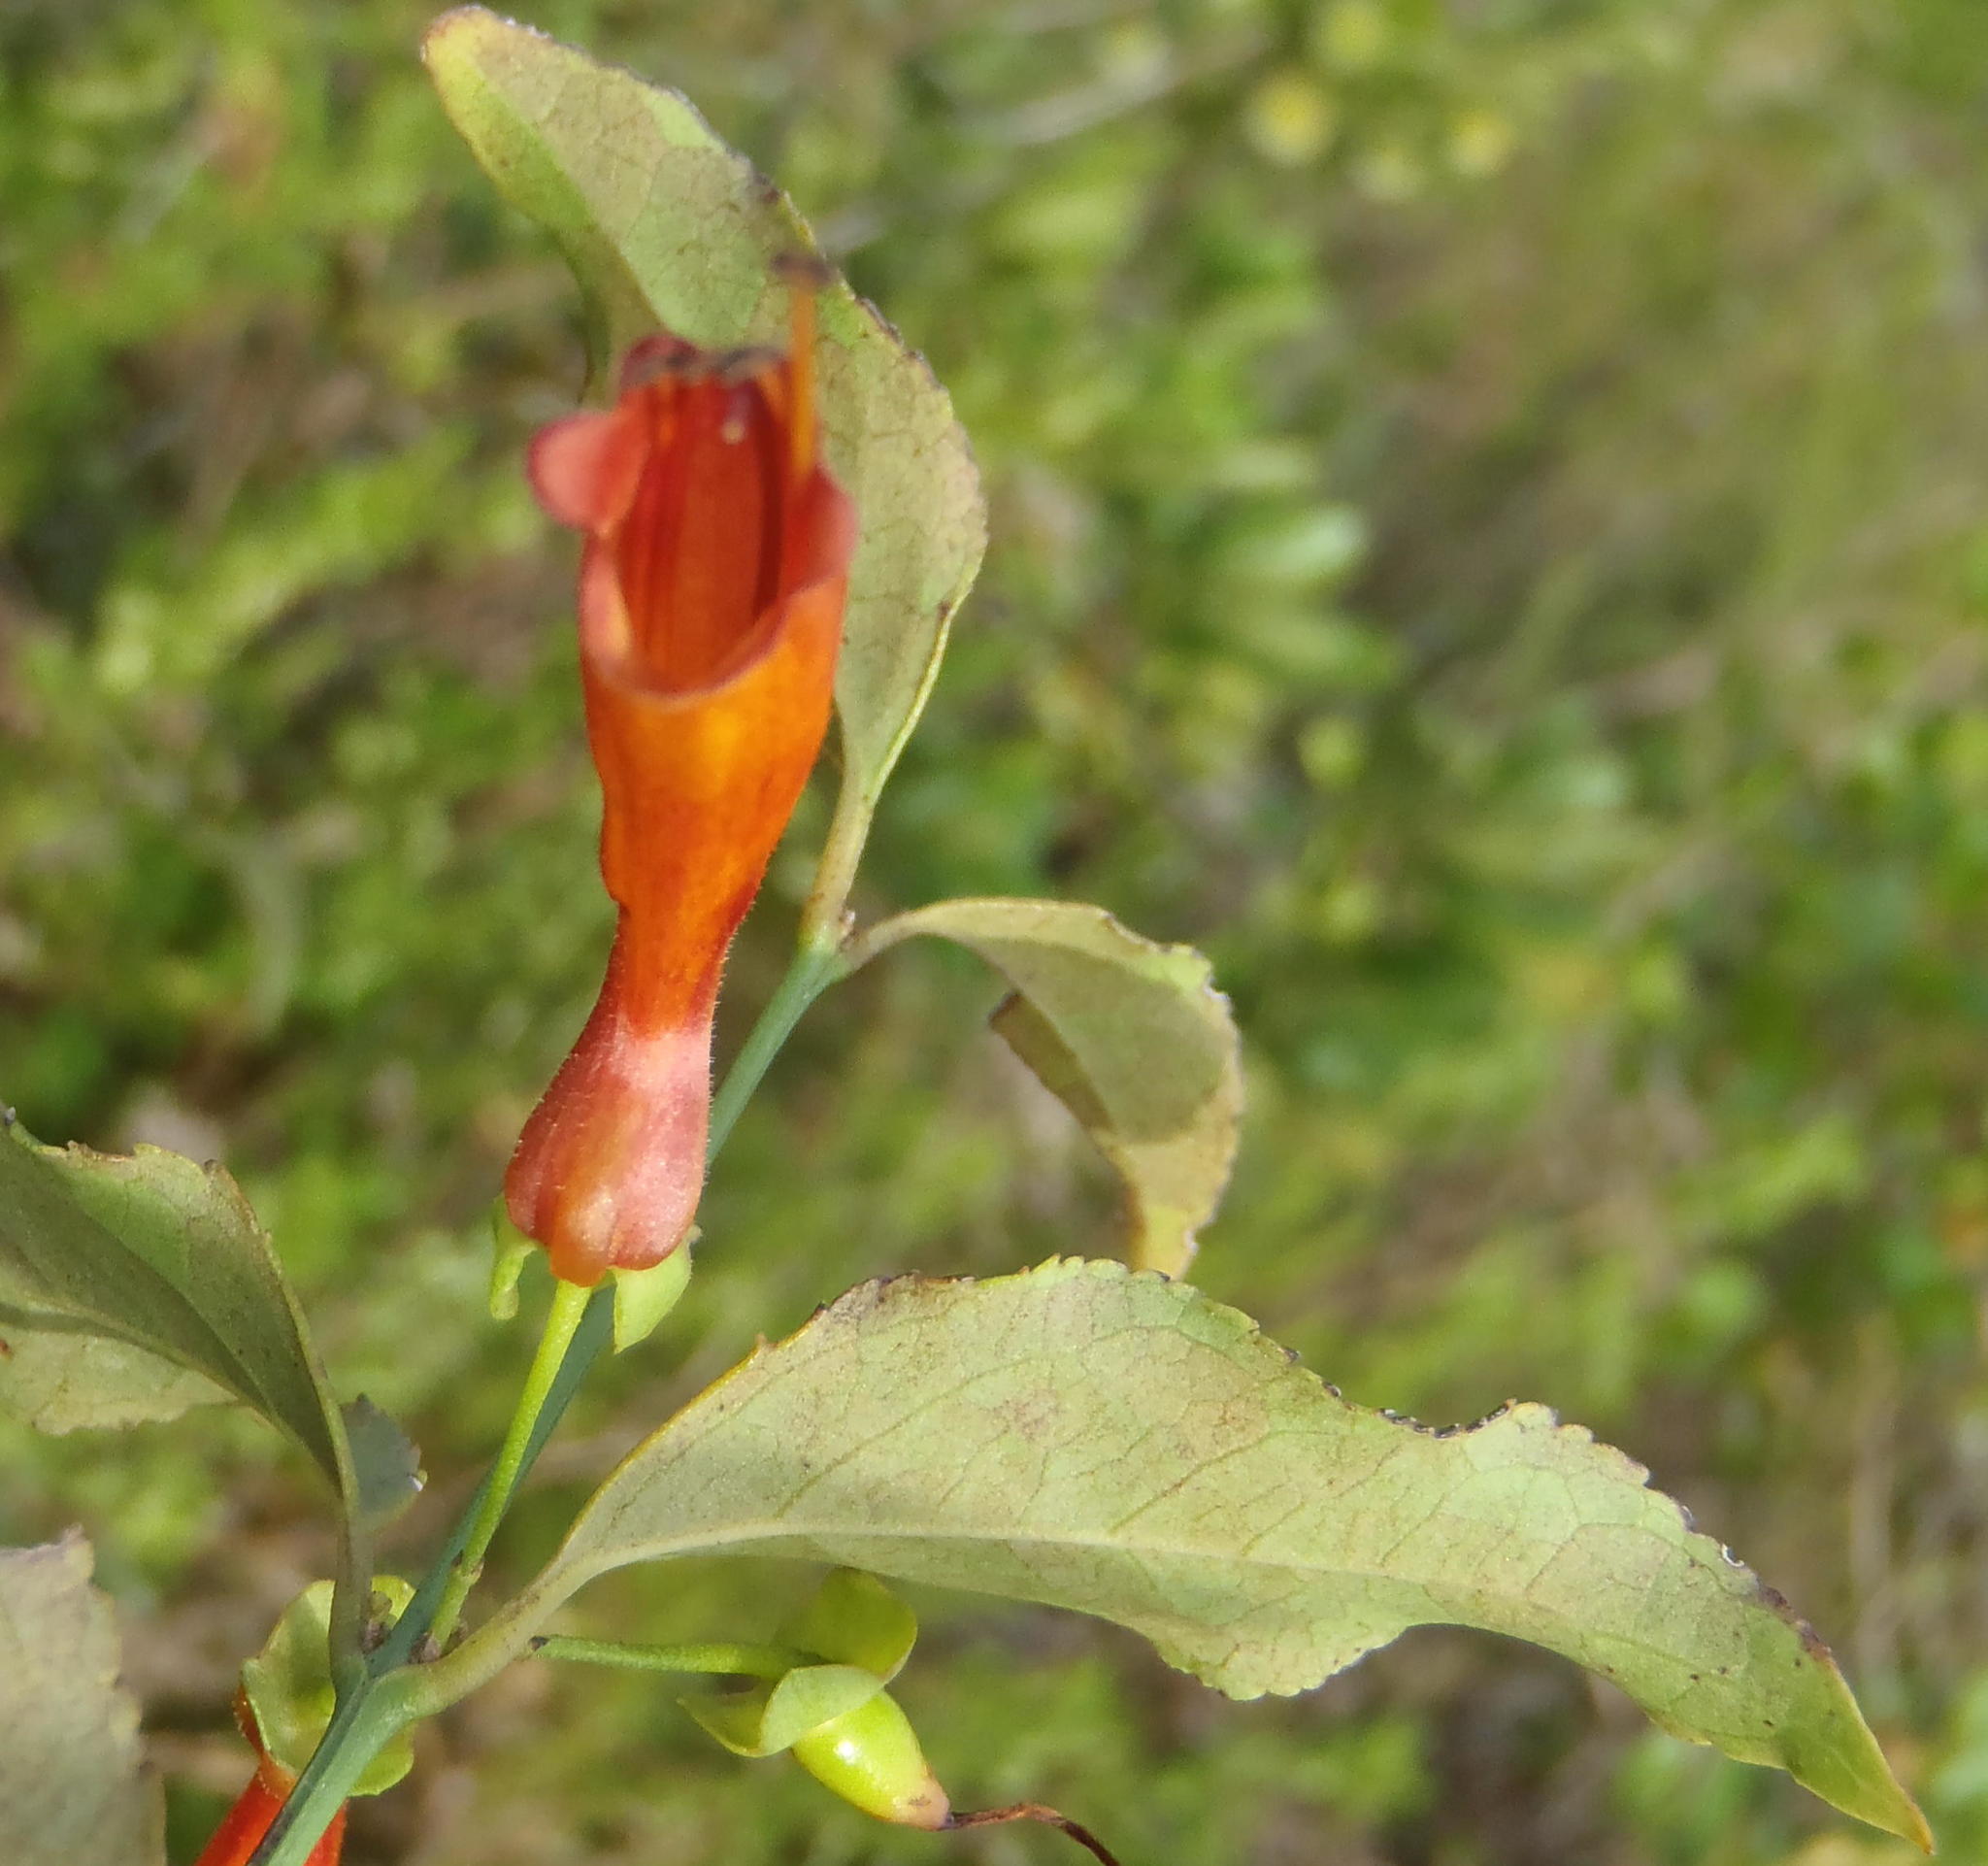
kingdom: Plantae
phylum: Tracheophyta
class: Magnoliopsida
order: Lamiales
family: Stilbaceae
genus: Halleria
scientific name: Halleria lucida
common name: Tree fuschia
